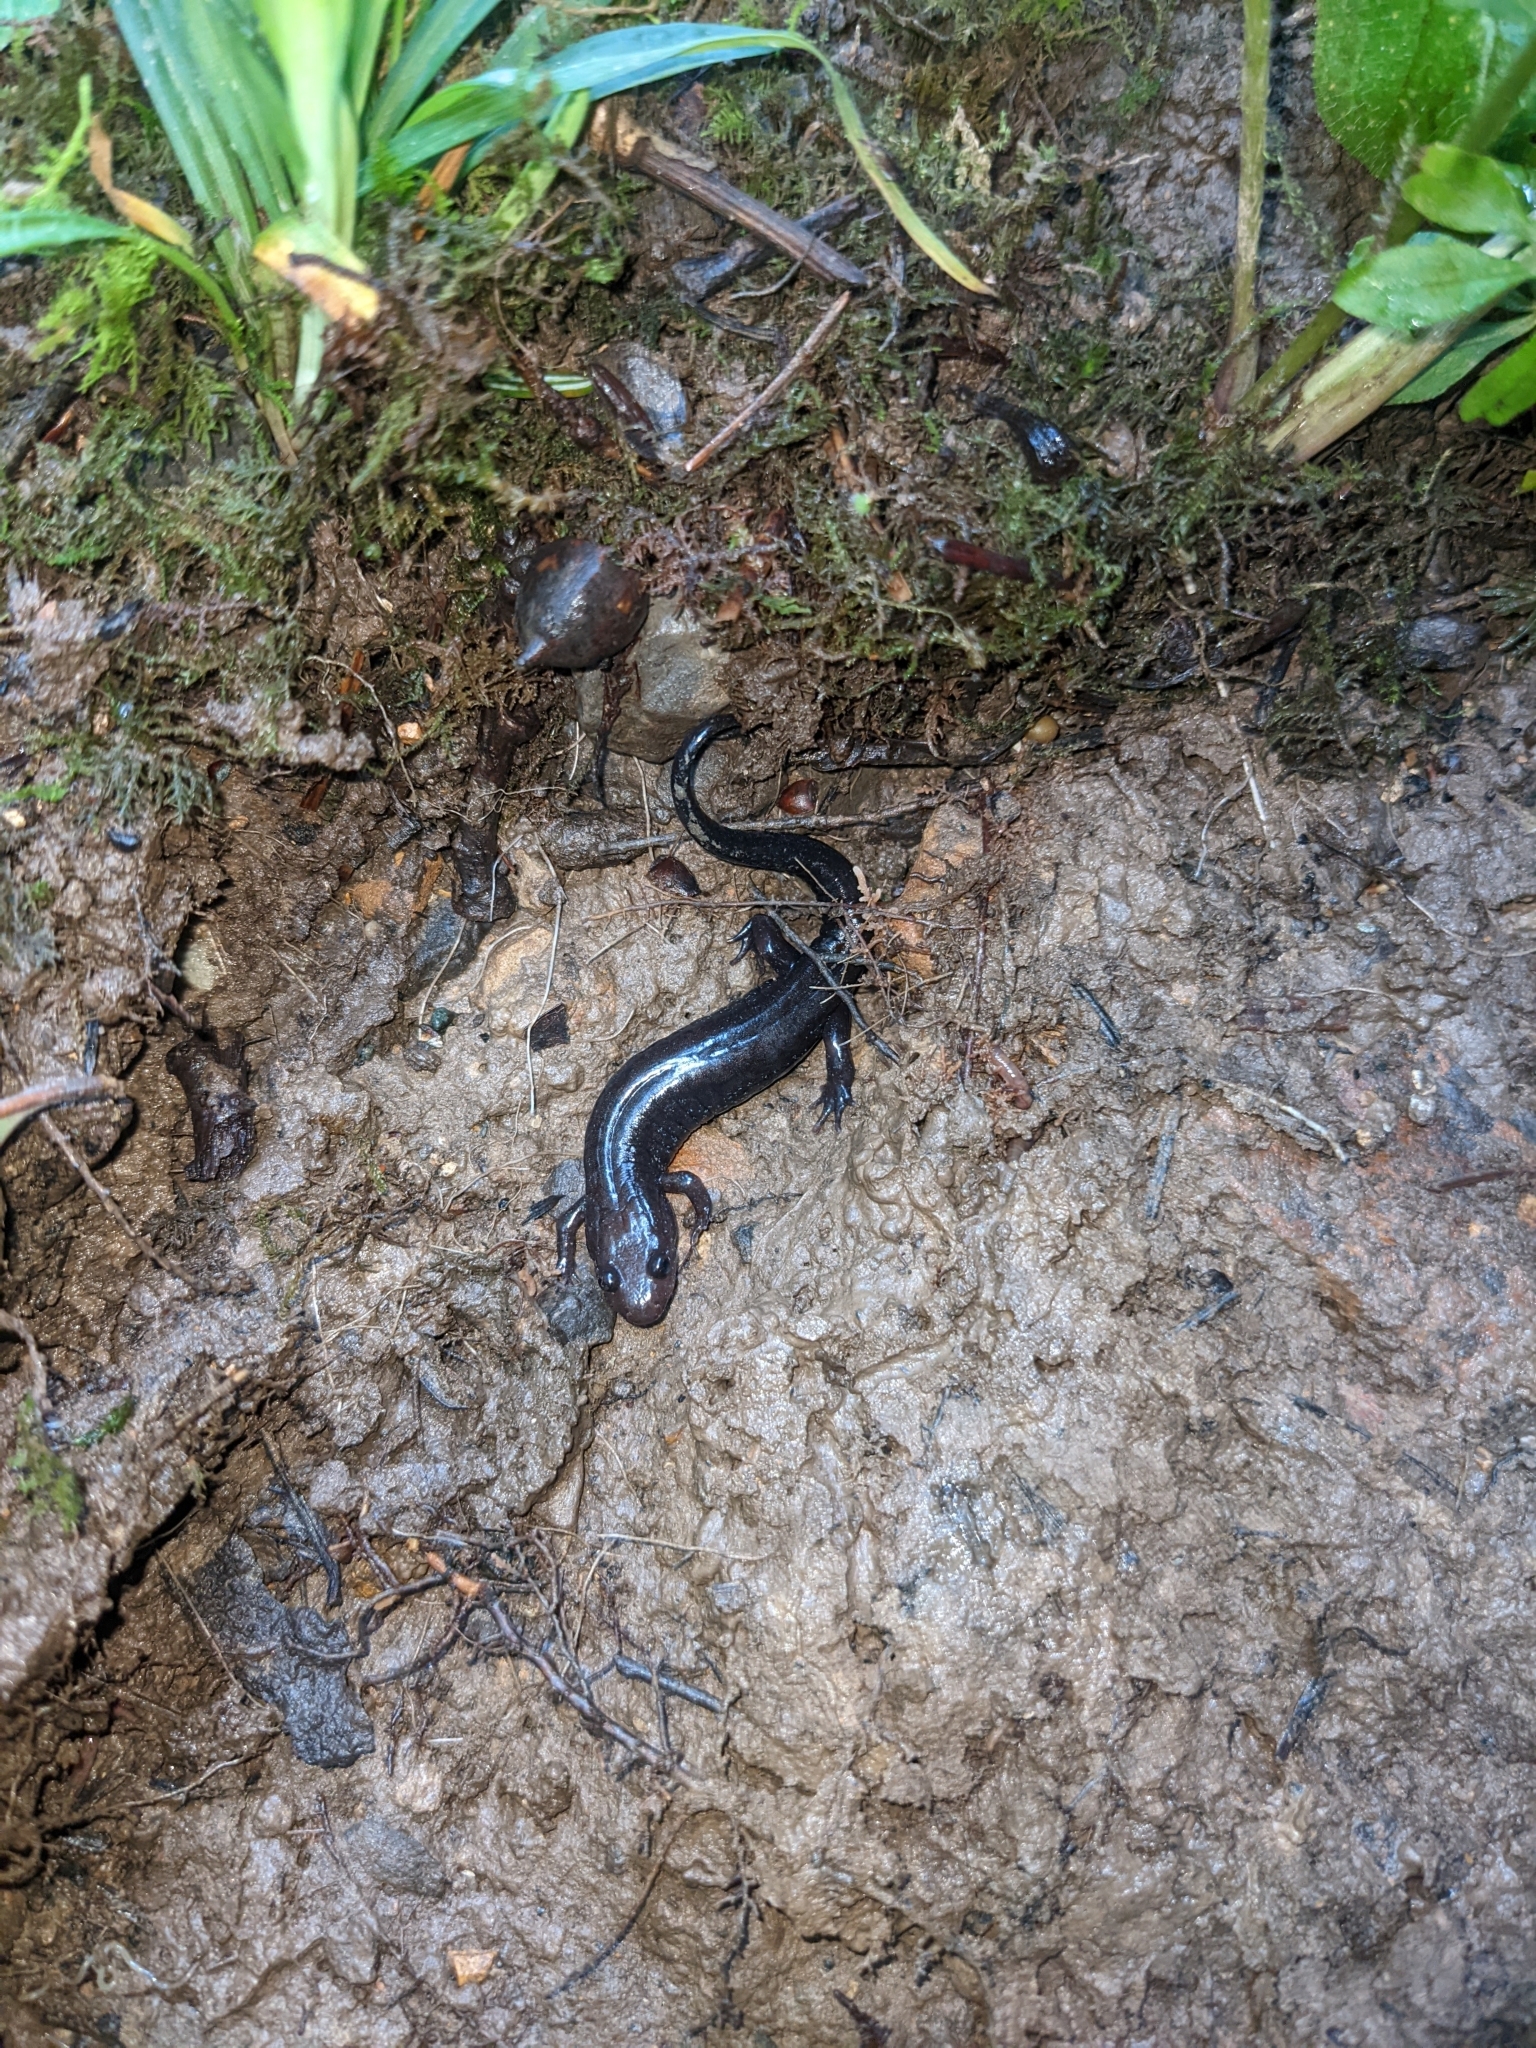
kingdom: Animalia
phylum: Chordata
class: Amphibia
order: Caudata
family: Plethodontidae
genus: Desmognathus
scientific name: Desmognathus ochrophaeus
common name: Allegheny mountain dusky salamander
